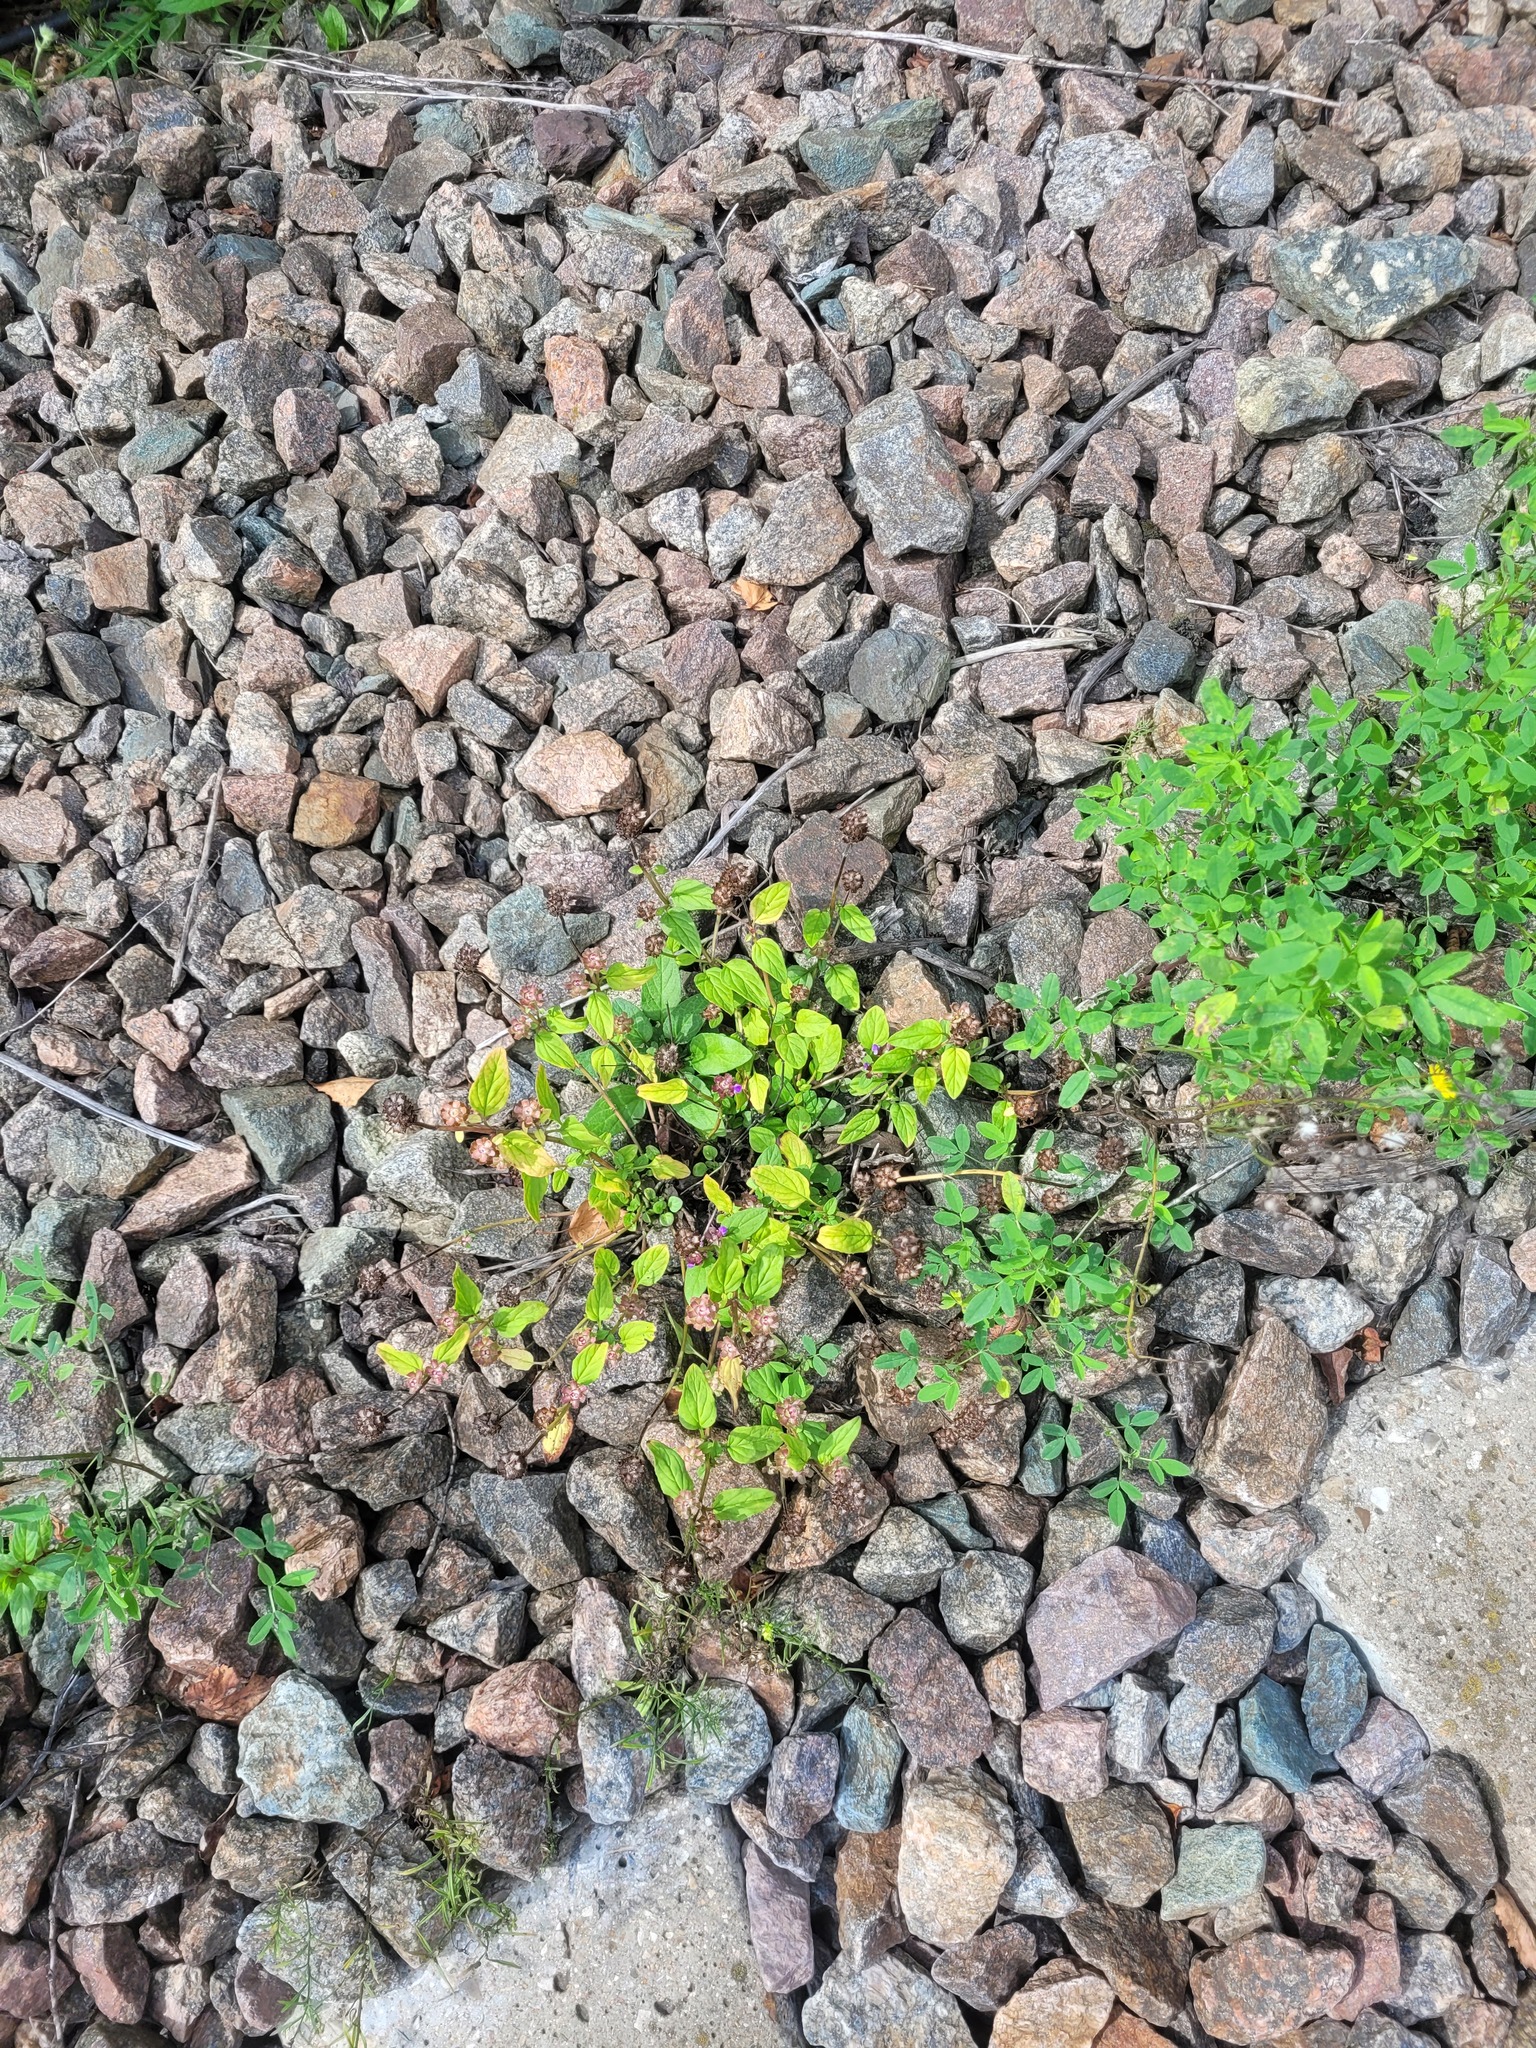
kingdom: Plantae
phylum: Tracheophyta
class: Magnoliopsida
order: Lamiales
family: Lamiaceae
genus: Prunella
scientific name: Prunella vulgaris
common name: Heal-all
